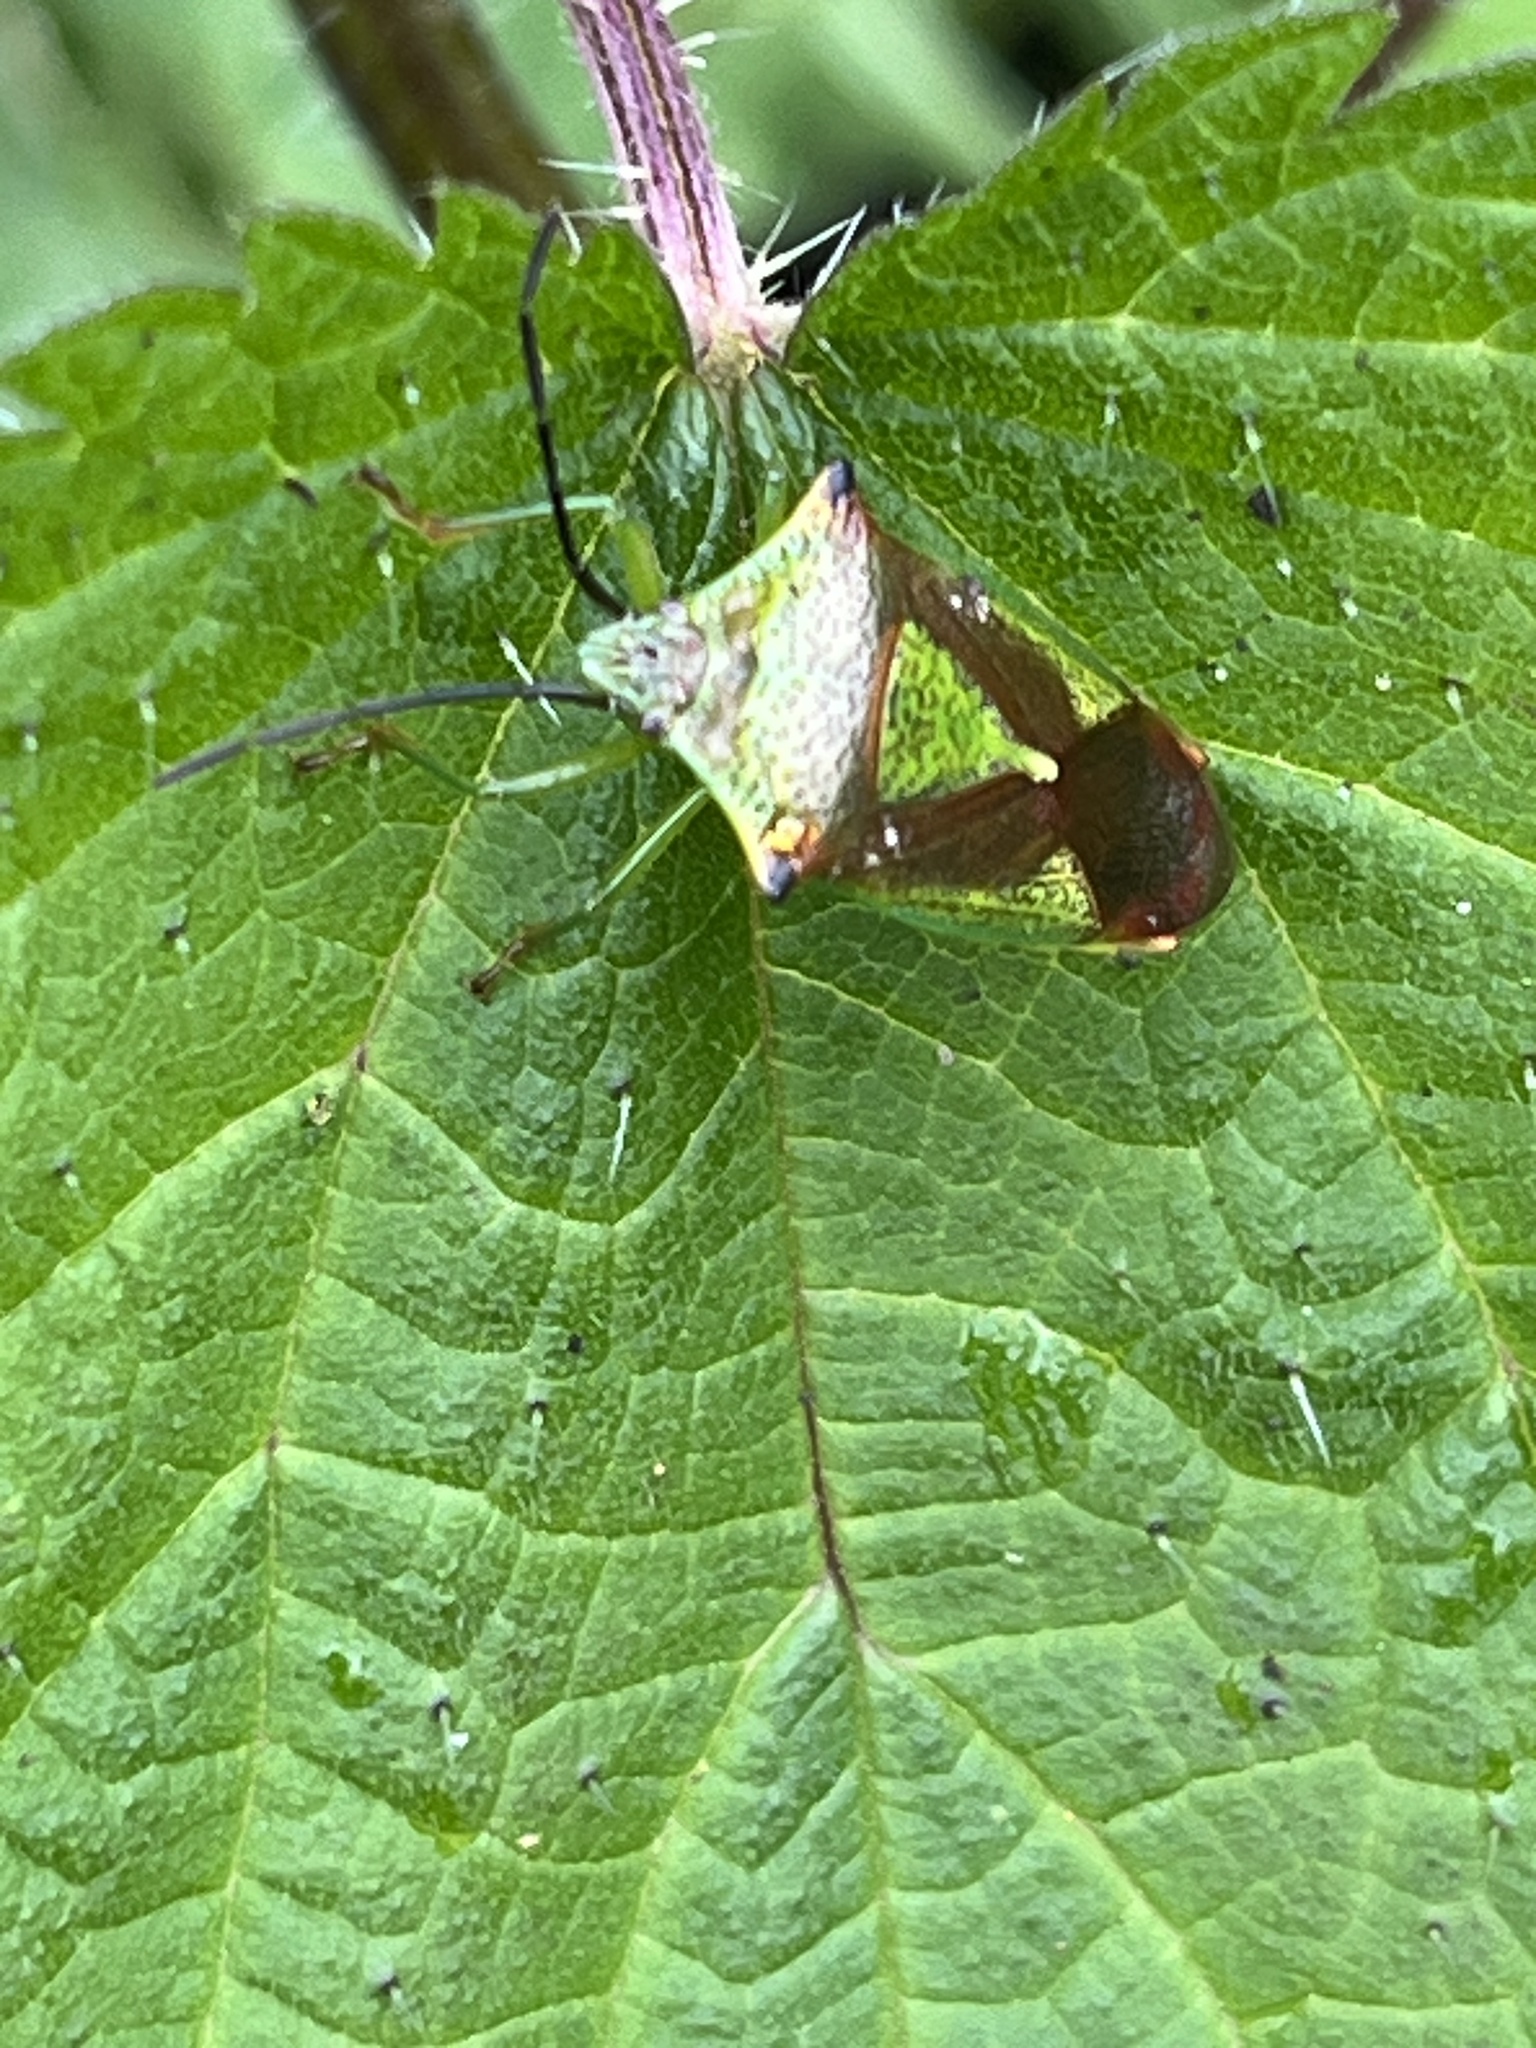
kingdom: Animalia
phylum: Arthropoda
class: Insecta
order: Hemiptera
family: Acanthosomatidae
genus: Acanthosoma
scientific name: Acanthosoma haemorrhoidale
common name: Hawthorn shieldbug
